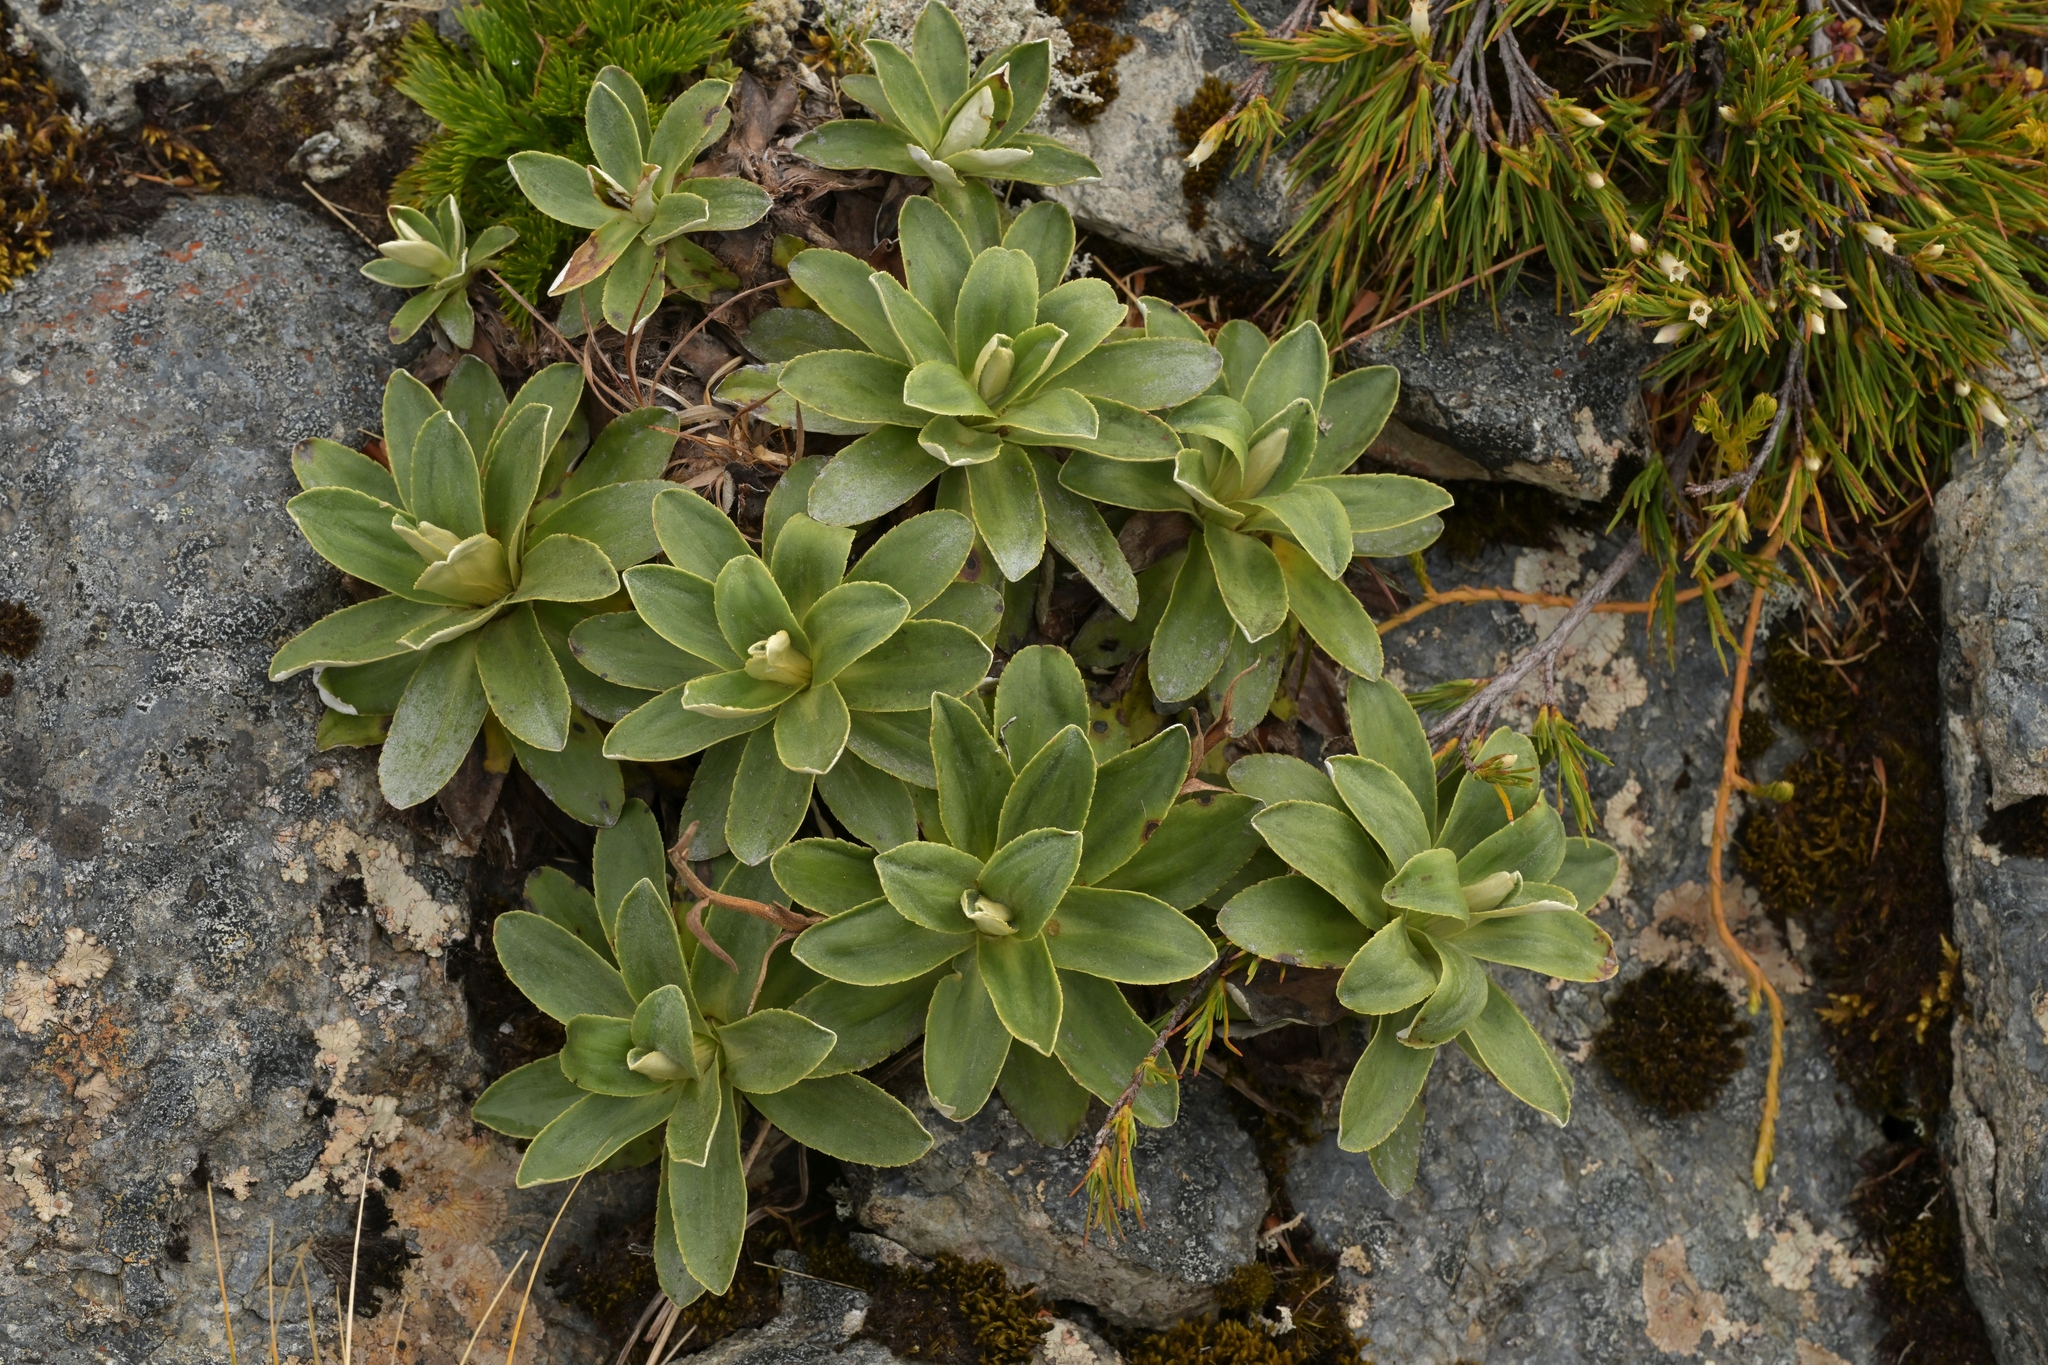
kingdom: Plantae
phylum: Tracheophyta
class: Magnoliopsida
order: Asterales
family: Asteraceae
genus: Celmisia
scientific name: Celmisia hieraciifolia
